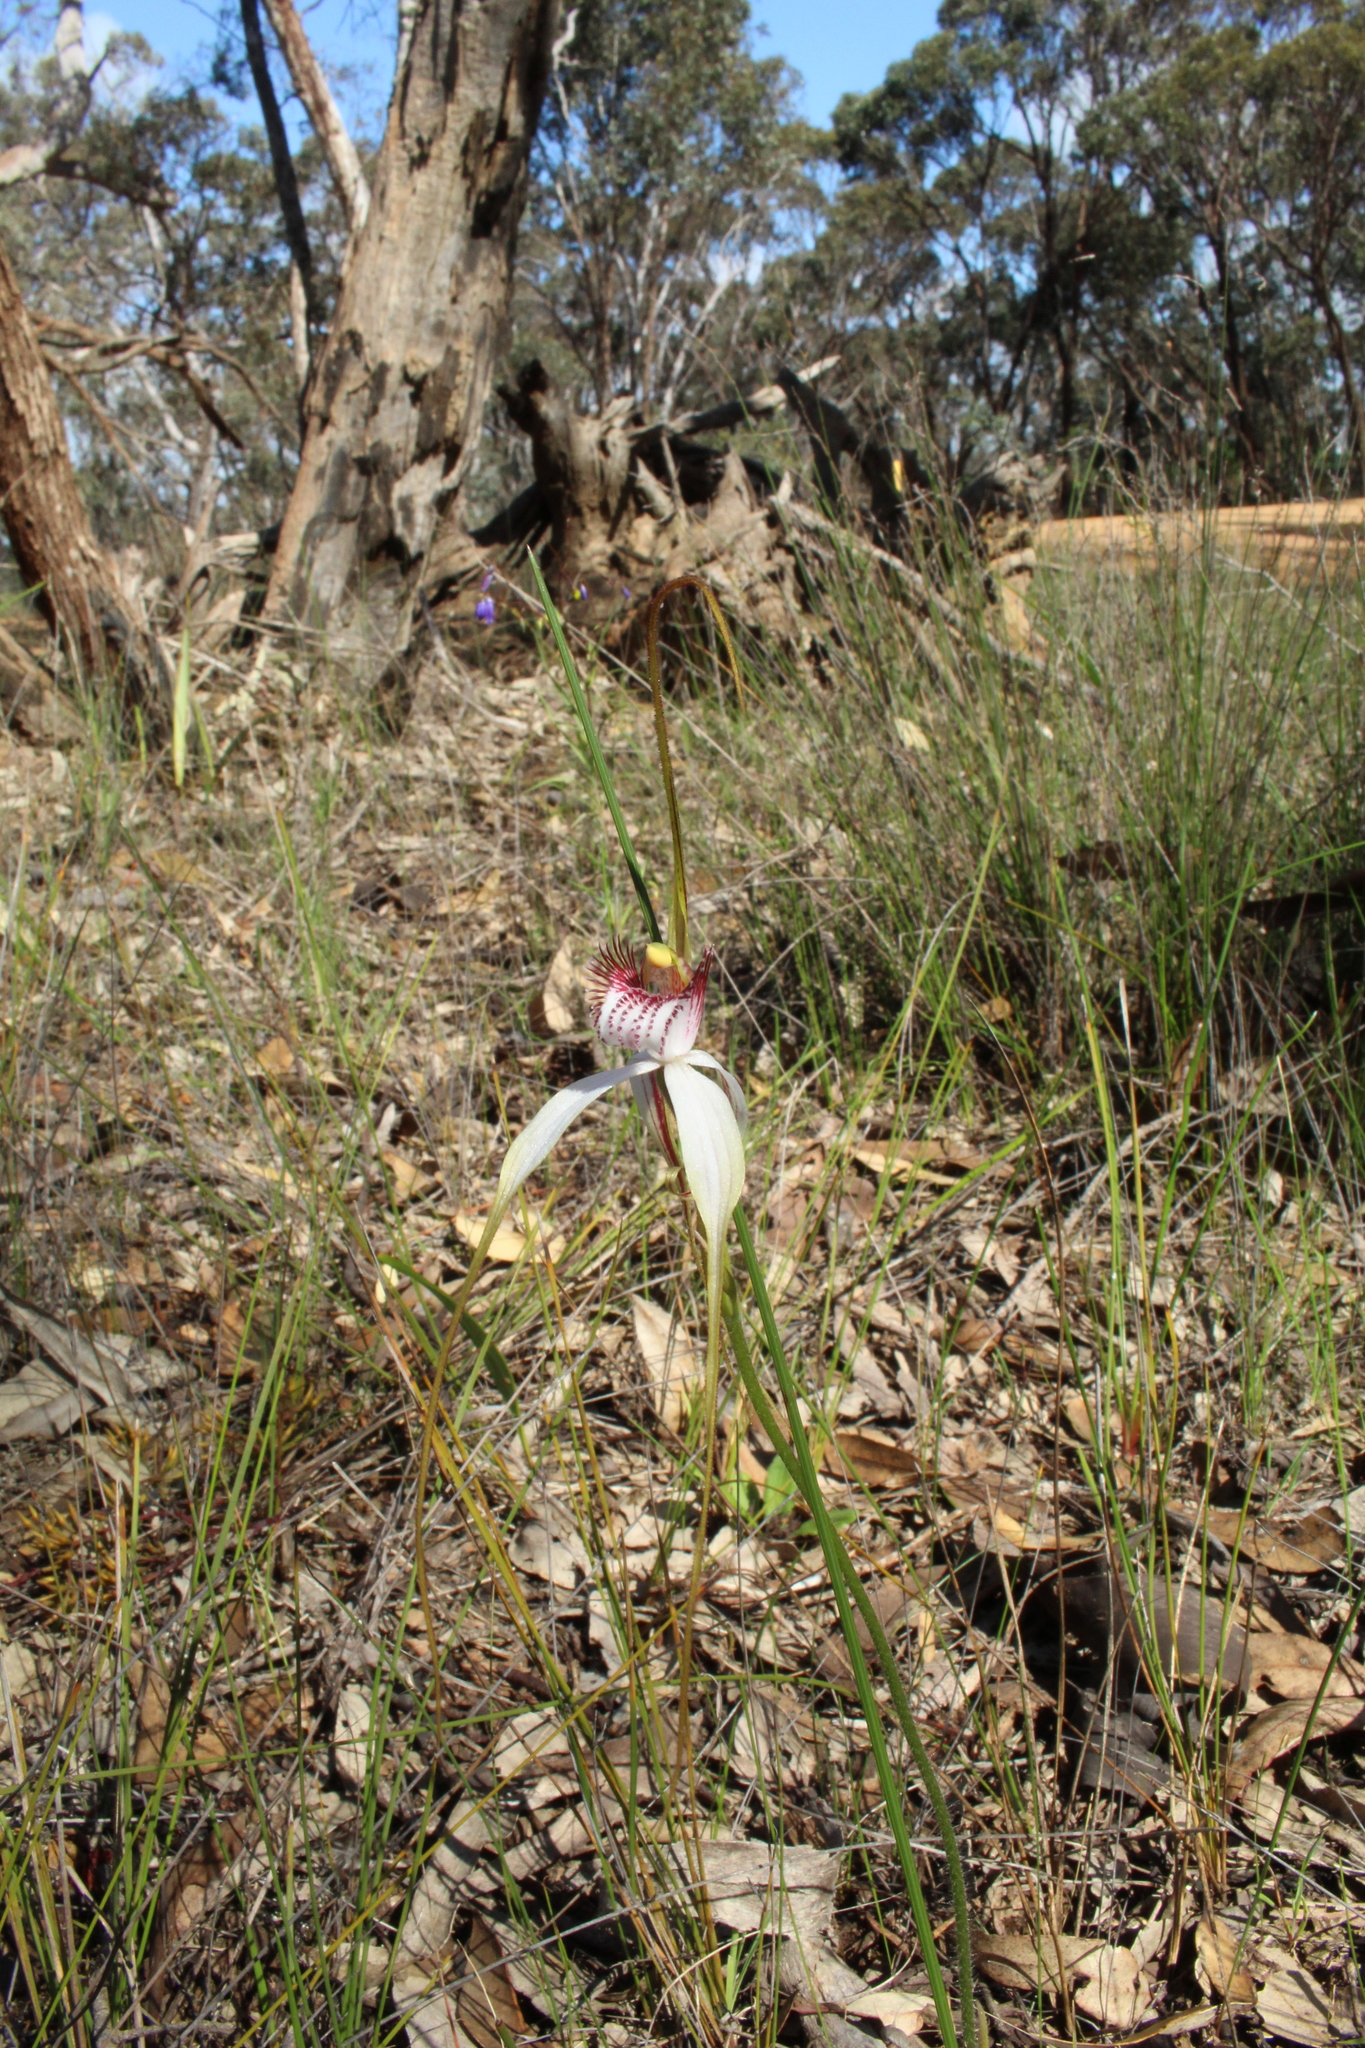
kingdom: Plantae
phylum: Tracheophyta
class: Liliopsida
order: Asparagales
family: Orchidaceae
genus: Caladenia
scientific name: Caladenia longicauda
